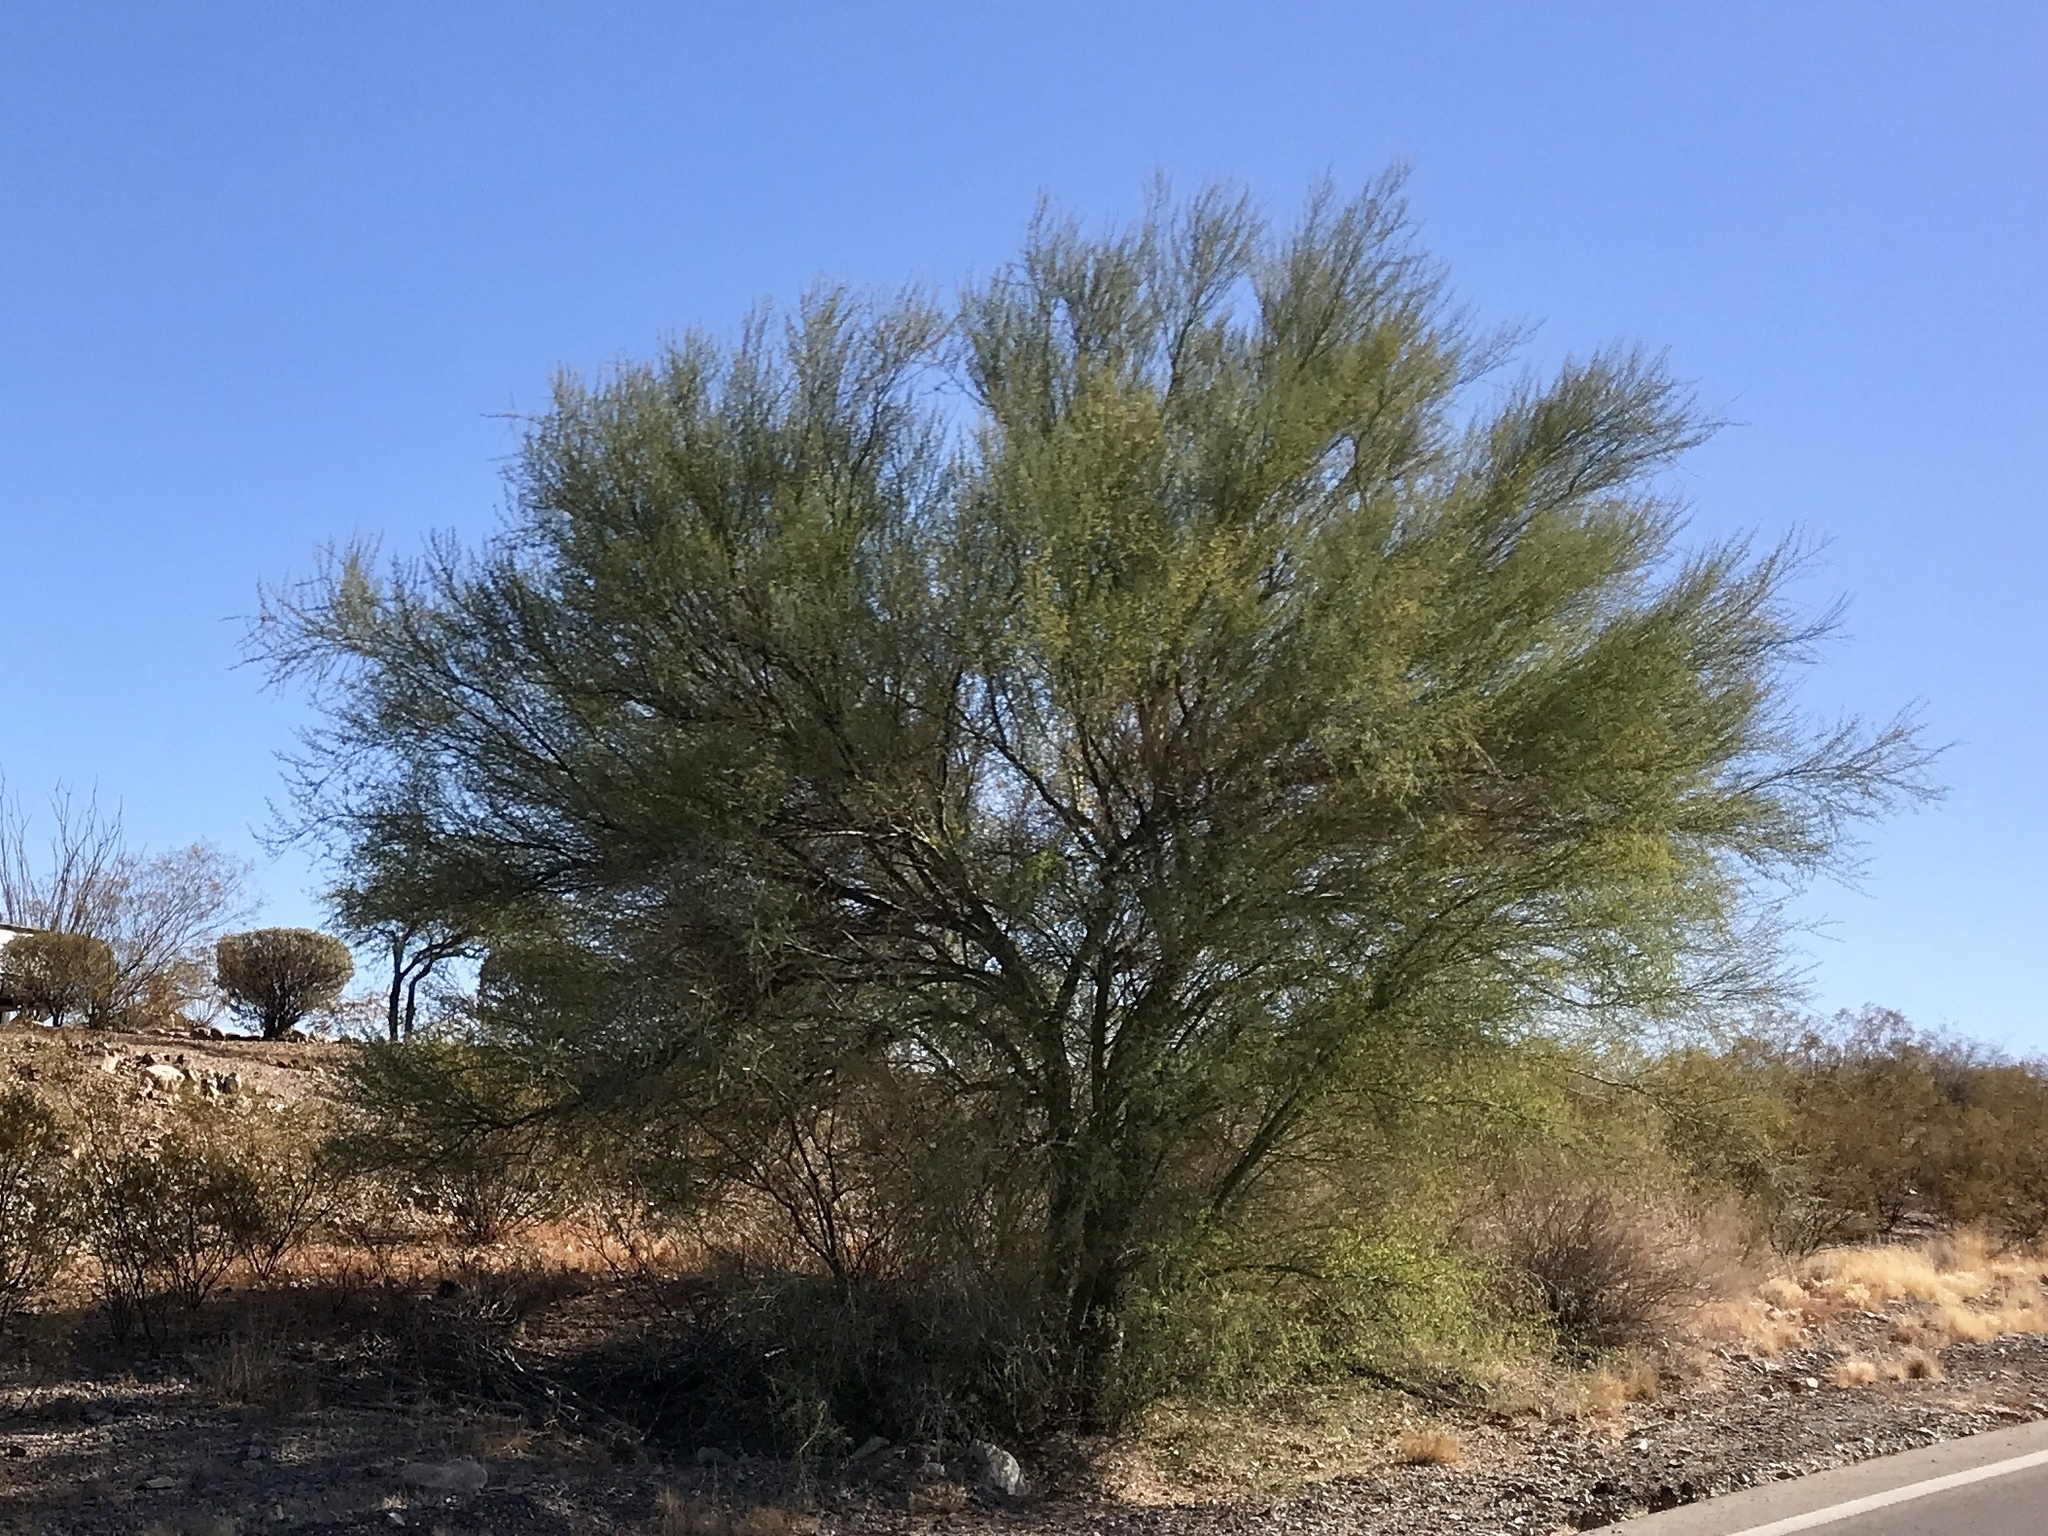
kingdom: Plantae
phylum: Tracheophyta
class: Magnoliopsida
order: Fabales
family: Fabaceae
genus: Parkinsonia
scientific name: Parkinsonia florida
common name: Blue paloverde
